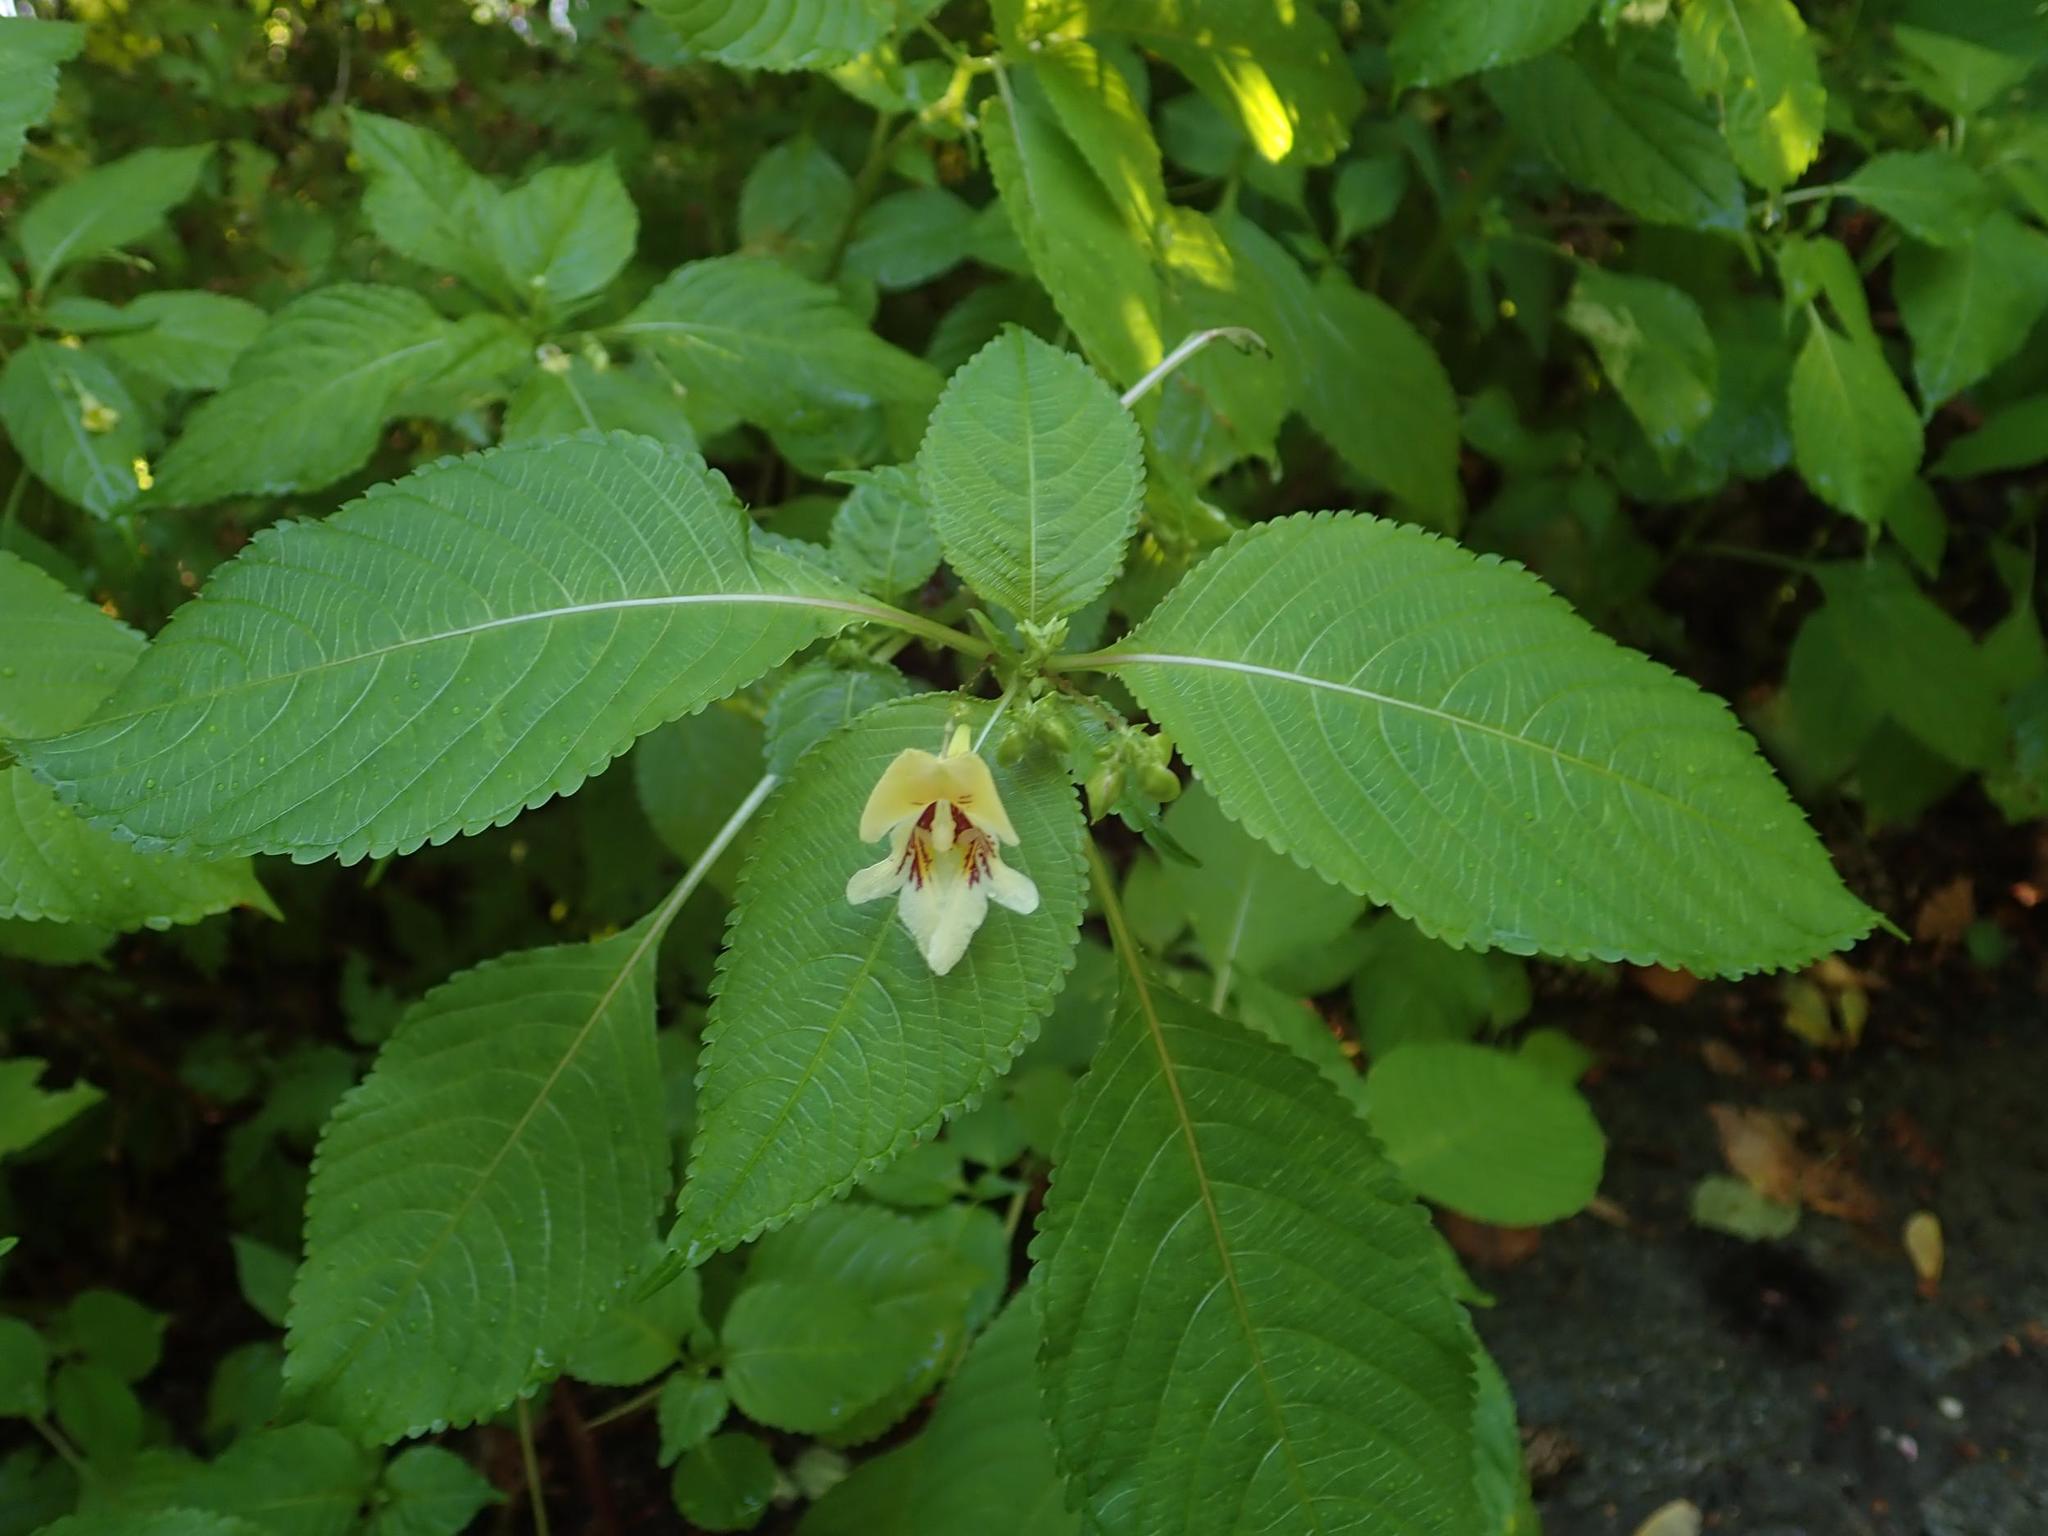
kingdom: Plantae
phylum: Tracheophyta
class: Magnoliopsida
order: Ericales
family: Balsaminaceae
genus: Impatiens
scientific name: Impatiens edgeworthii
